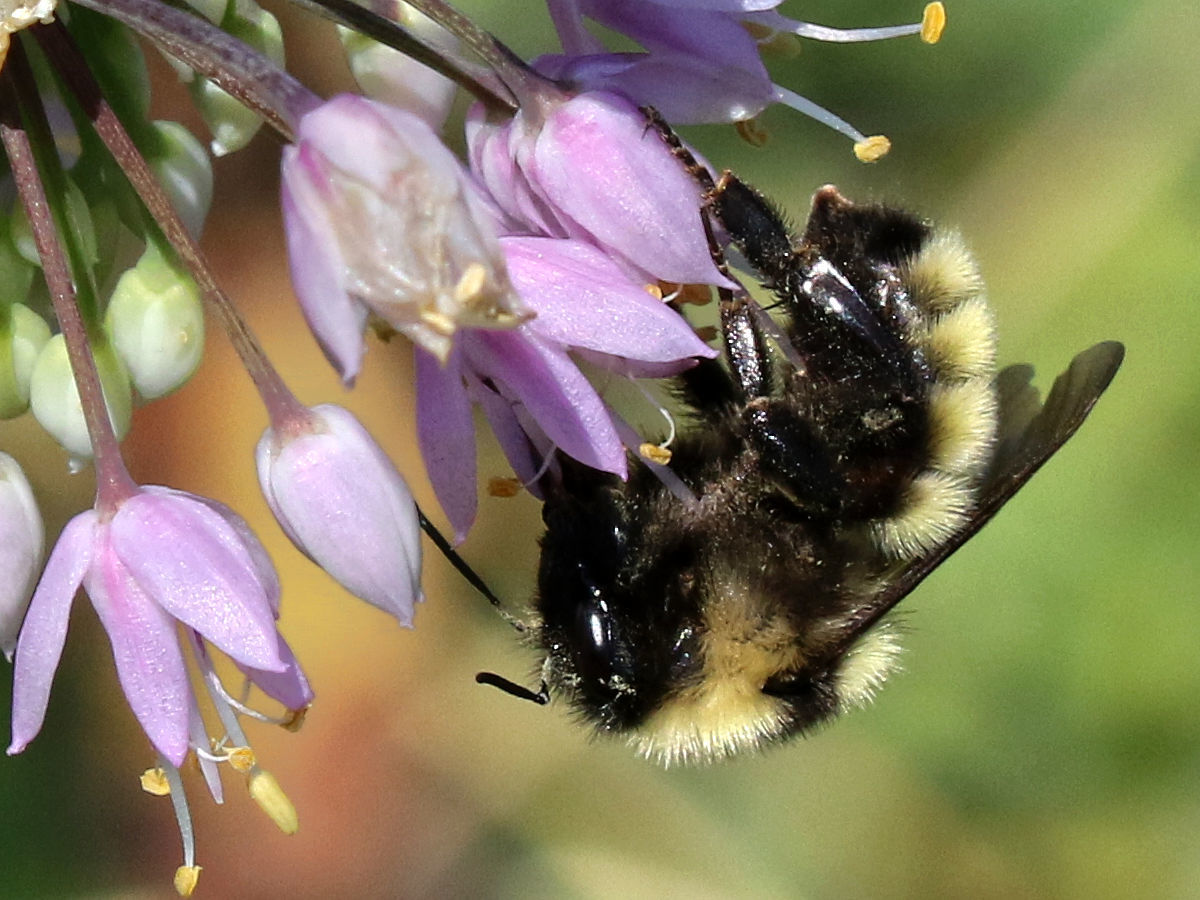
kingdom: Animalia
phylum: Arthropoda
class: Insecta
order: Hymenoptera
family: Apidae
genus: Bombus
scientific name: Bombus fervidus
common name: Yellow bumble bee
